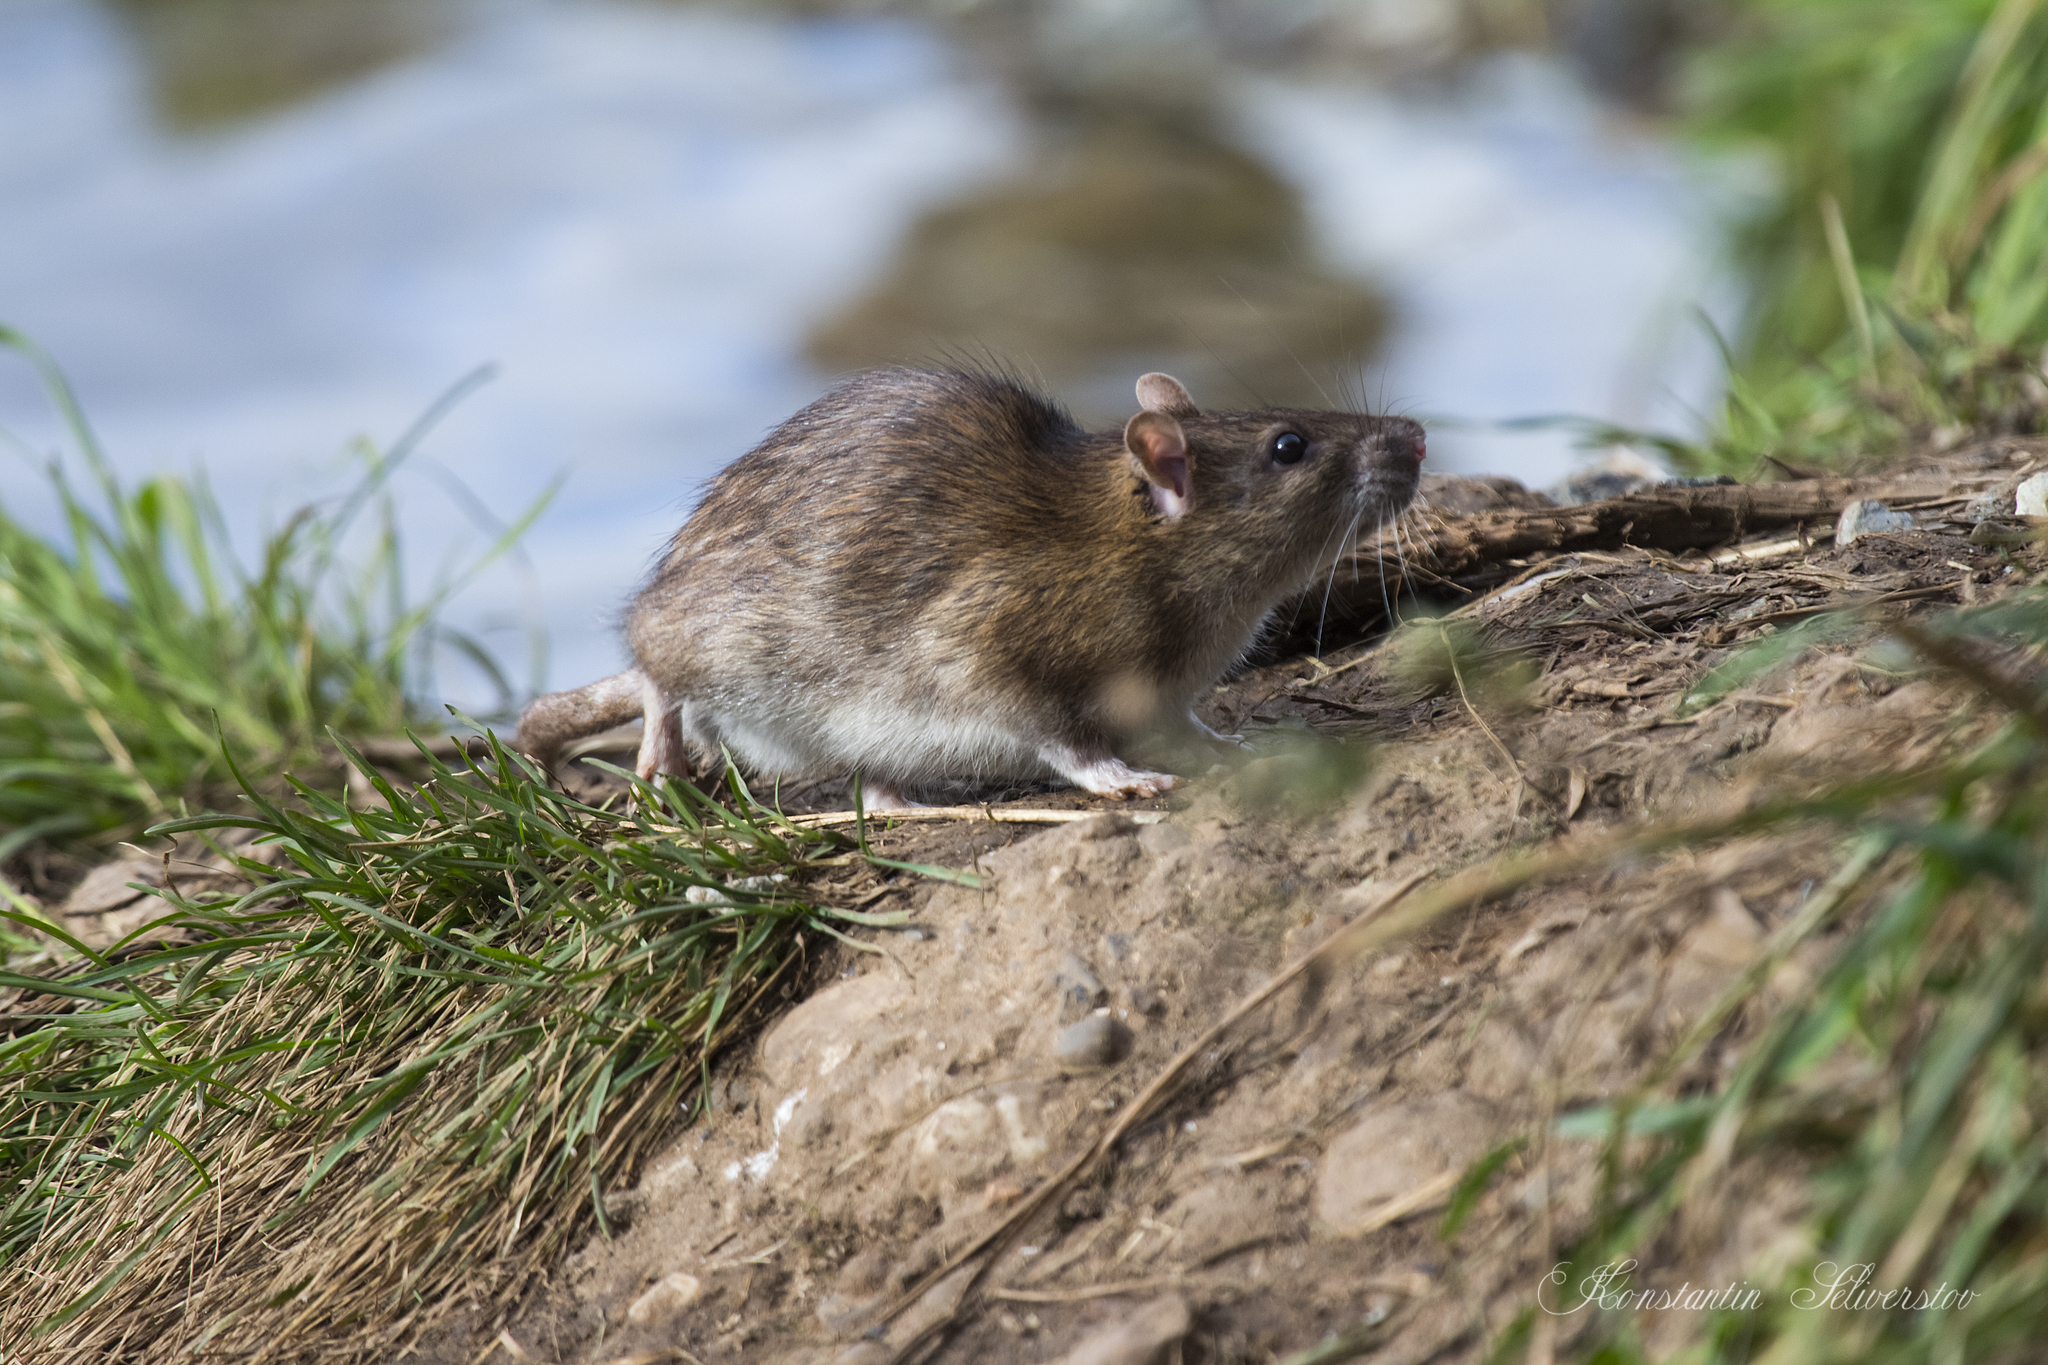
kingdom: Animalia
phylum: Chordata
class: Mammalia
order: Rodentia
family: Muridae
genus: Rattus
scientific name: Rattus norvegicus
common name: Brown rat
